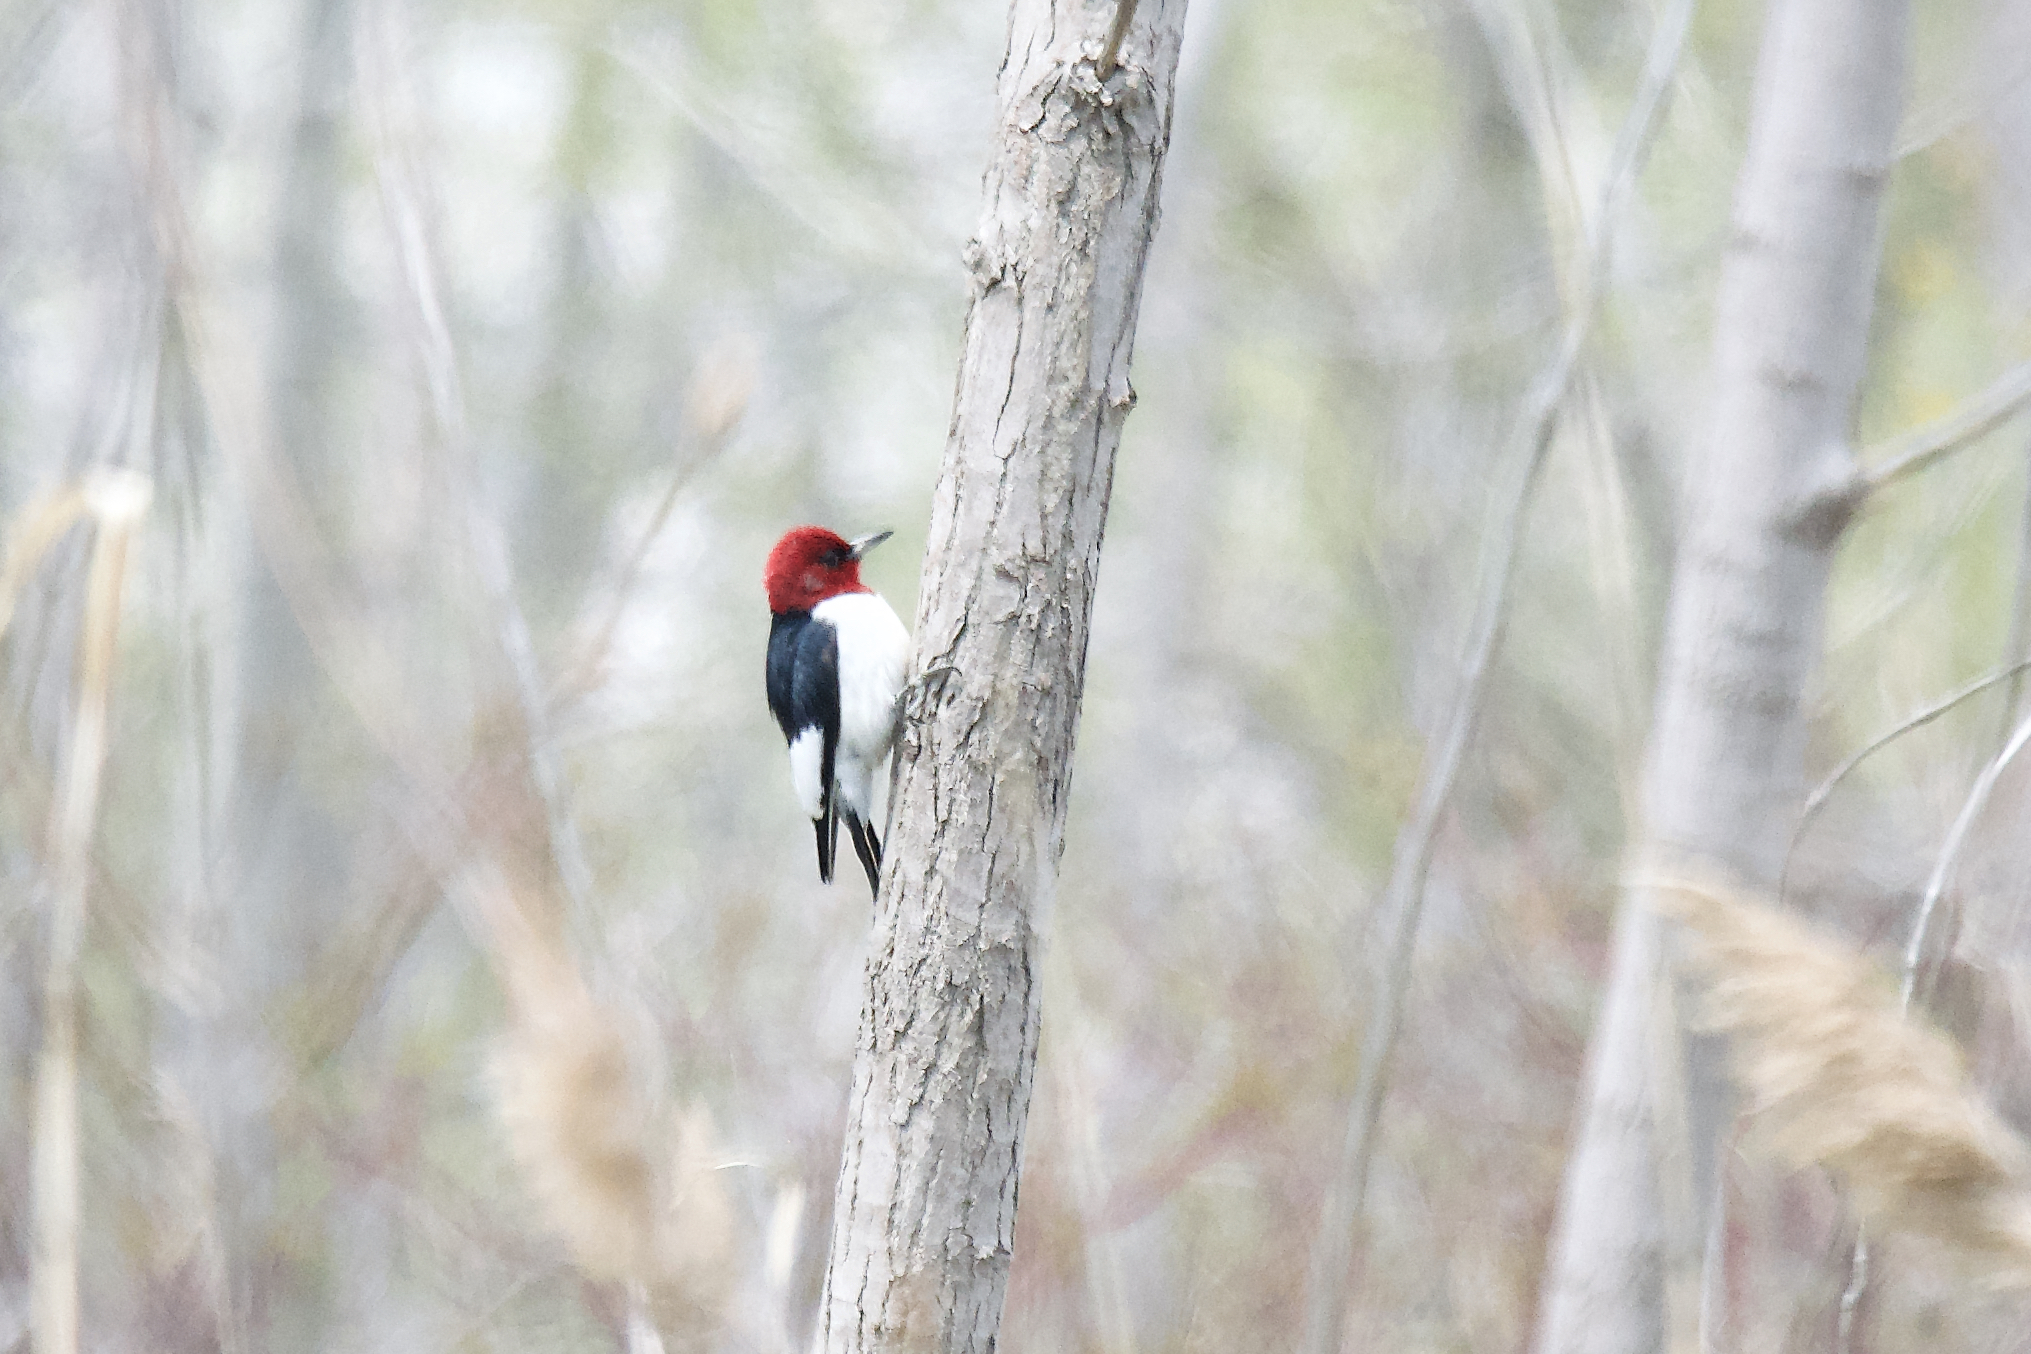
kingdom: Animalia
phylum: Chordata
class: Aves
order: Piciformes
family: Picidae
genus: Melanerpes
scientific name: Melanerpes erythrocephalus
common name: Red-headed woodpecker
